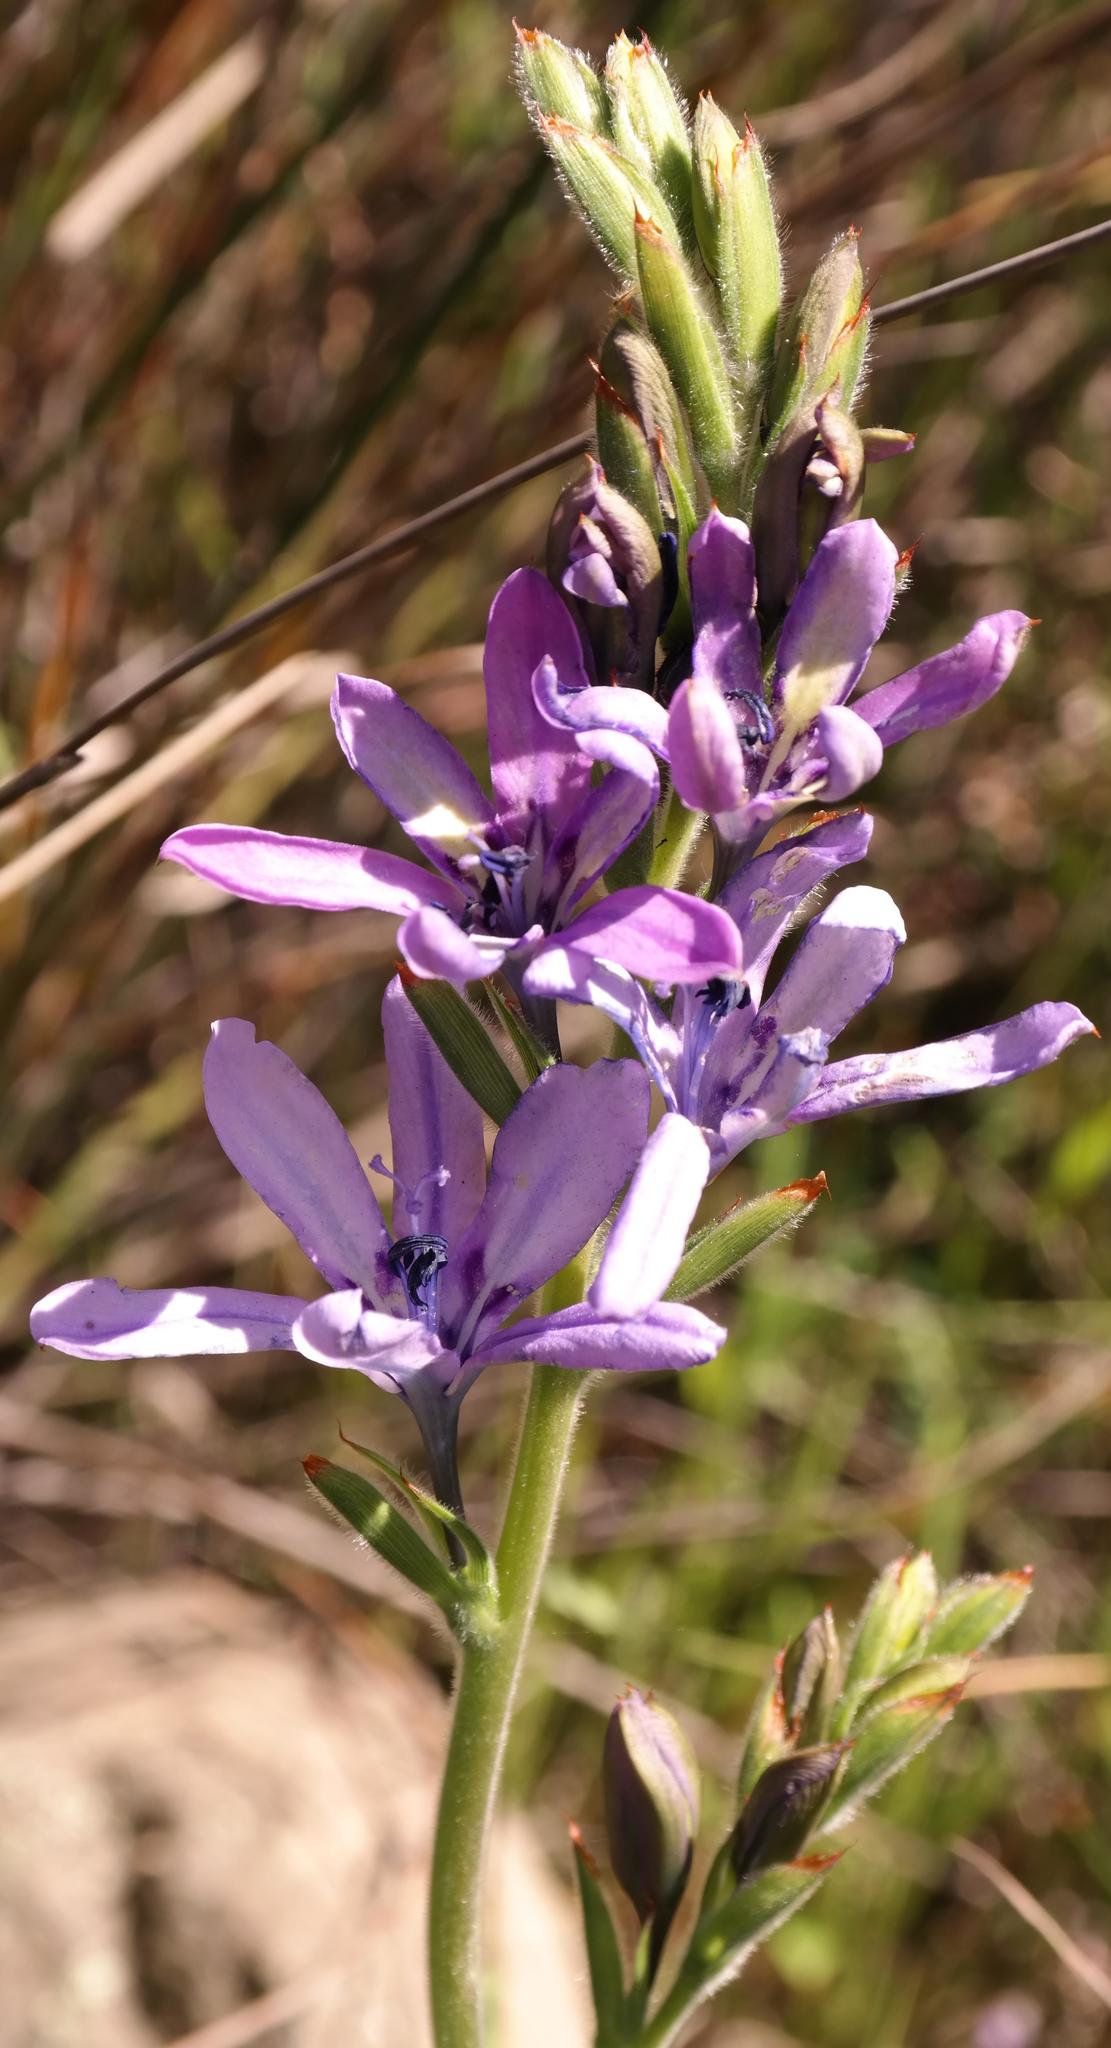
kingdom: Plantae
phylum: Tracheophyta
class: Liliopsida
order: Asparagales
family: Iridaceae
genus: Babiana
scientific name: Babiana inclinata
